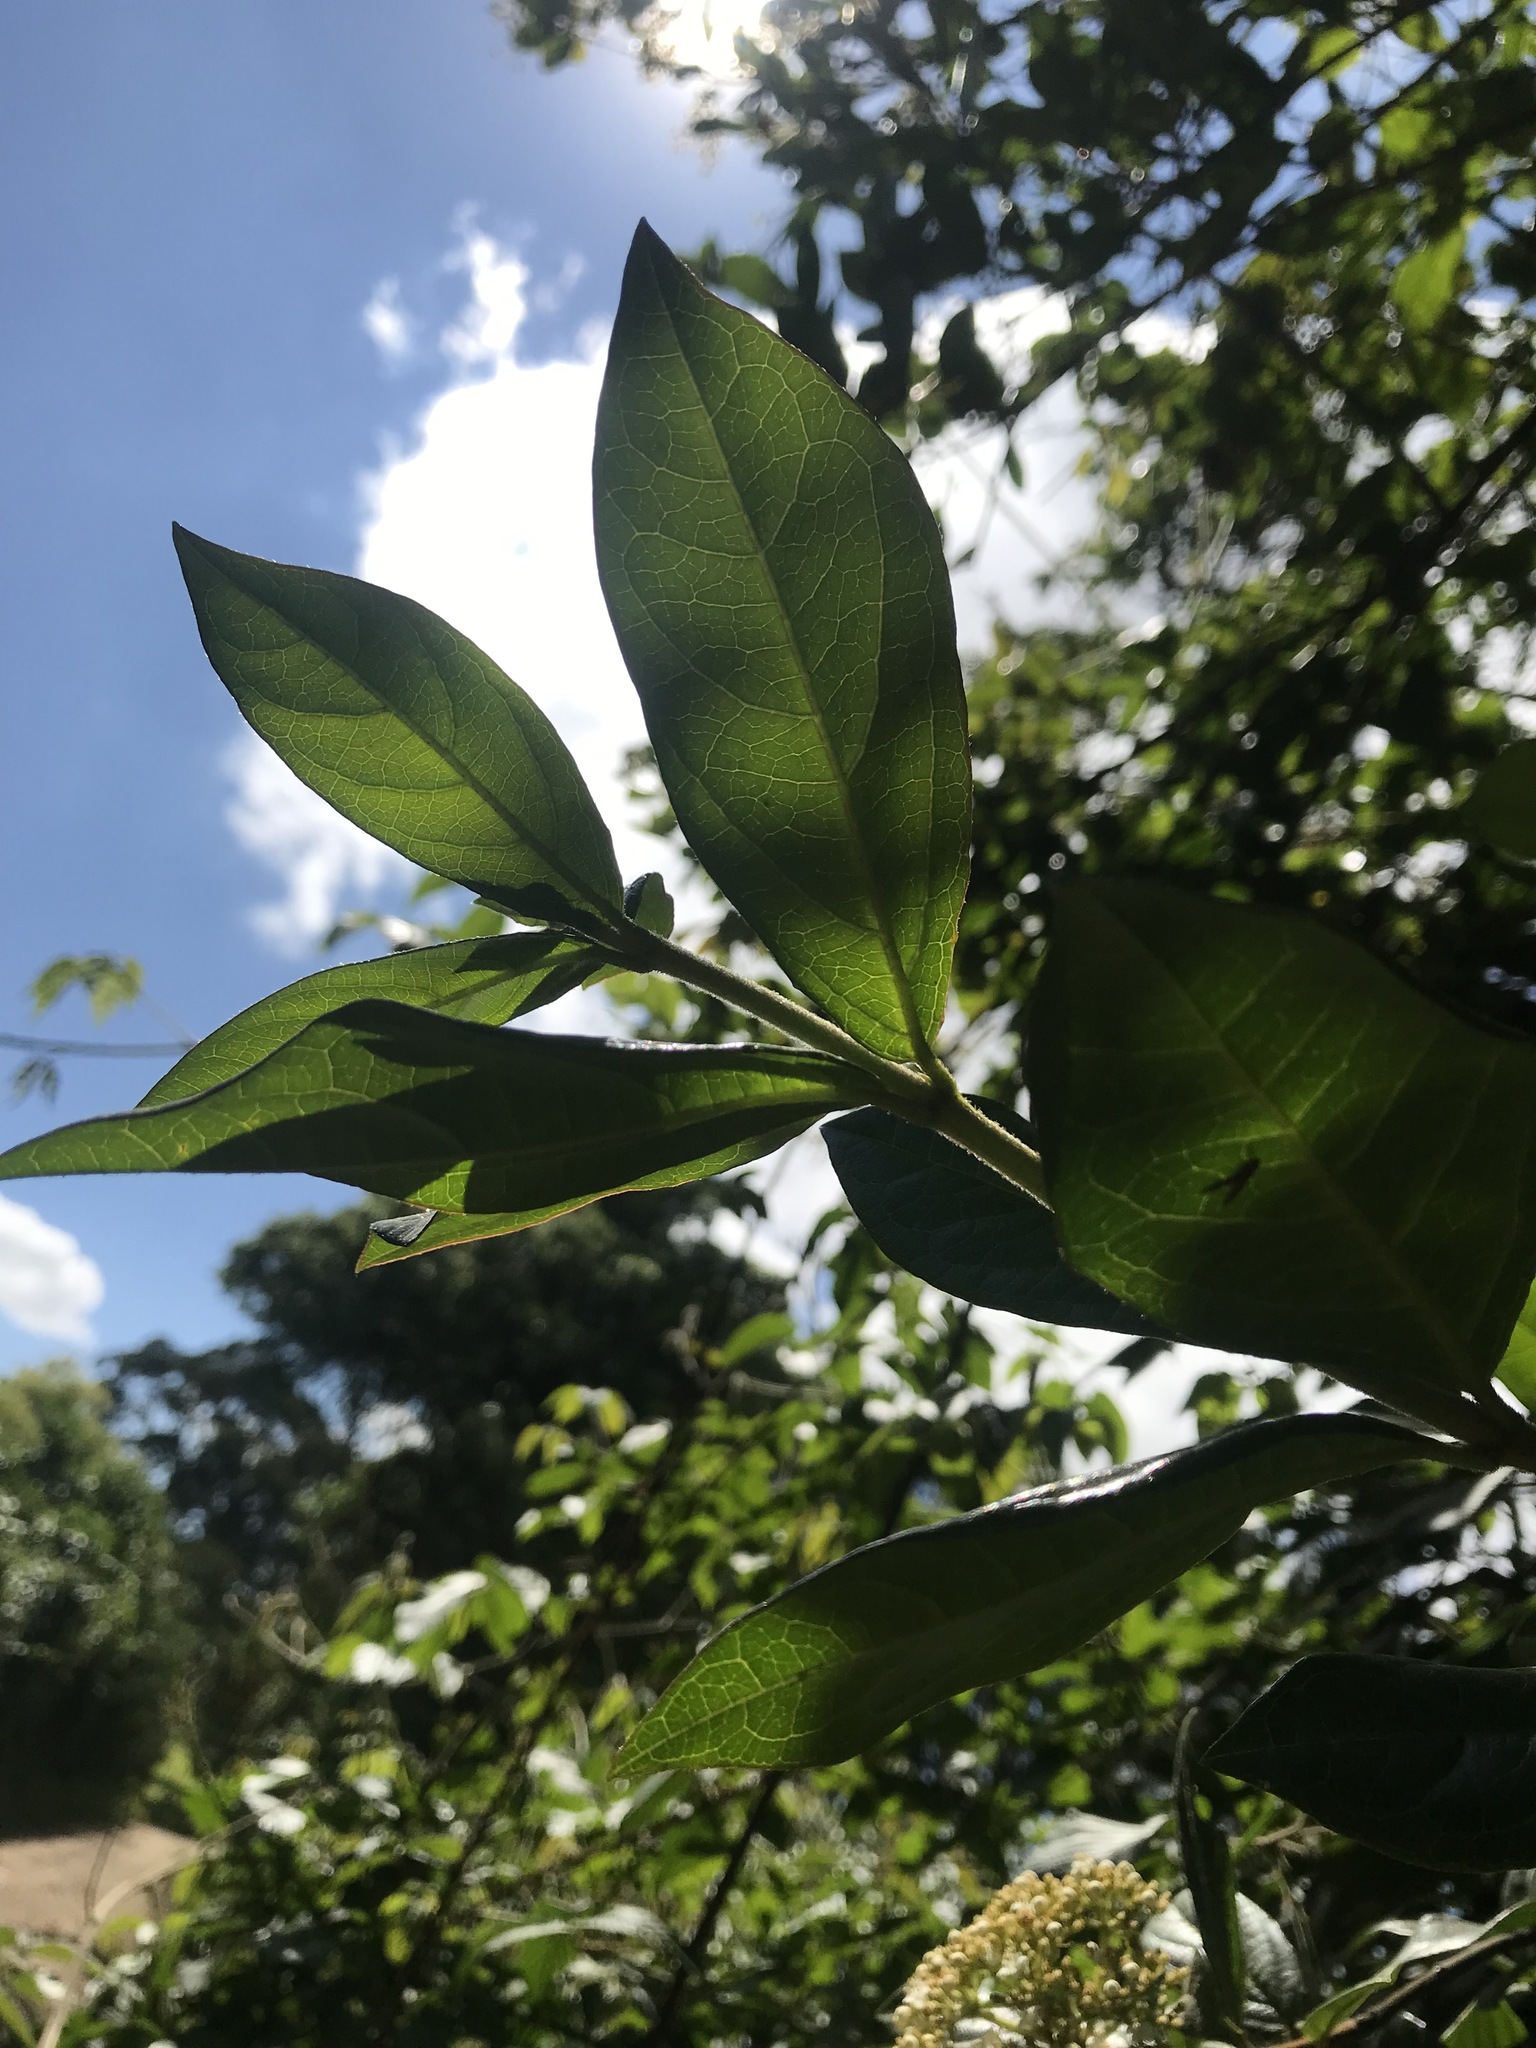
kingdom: Plantae
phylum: Tracheophyta
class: Magnoliopsida
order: Dipsacales
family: Viburnaceae
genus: Viburnum
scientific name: Viburnum triphyllum
